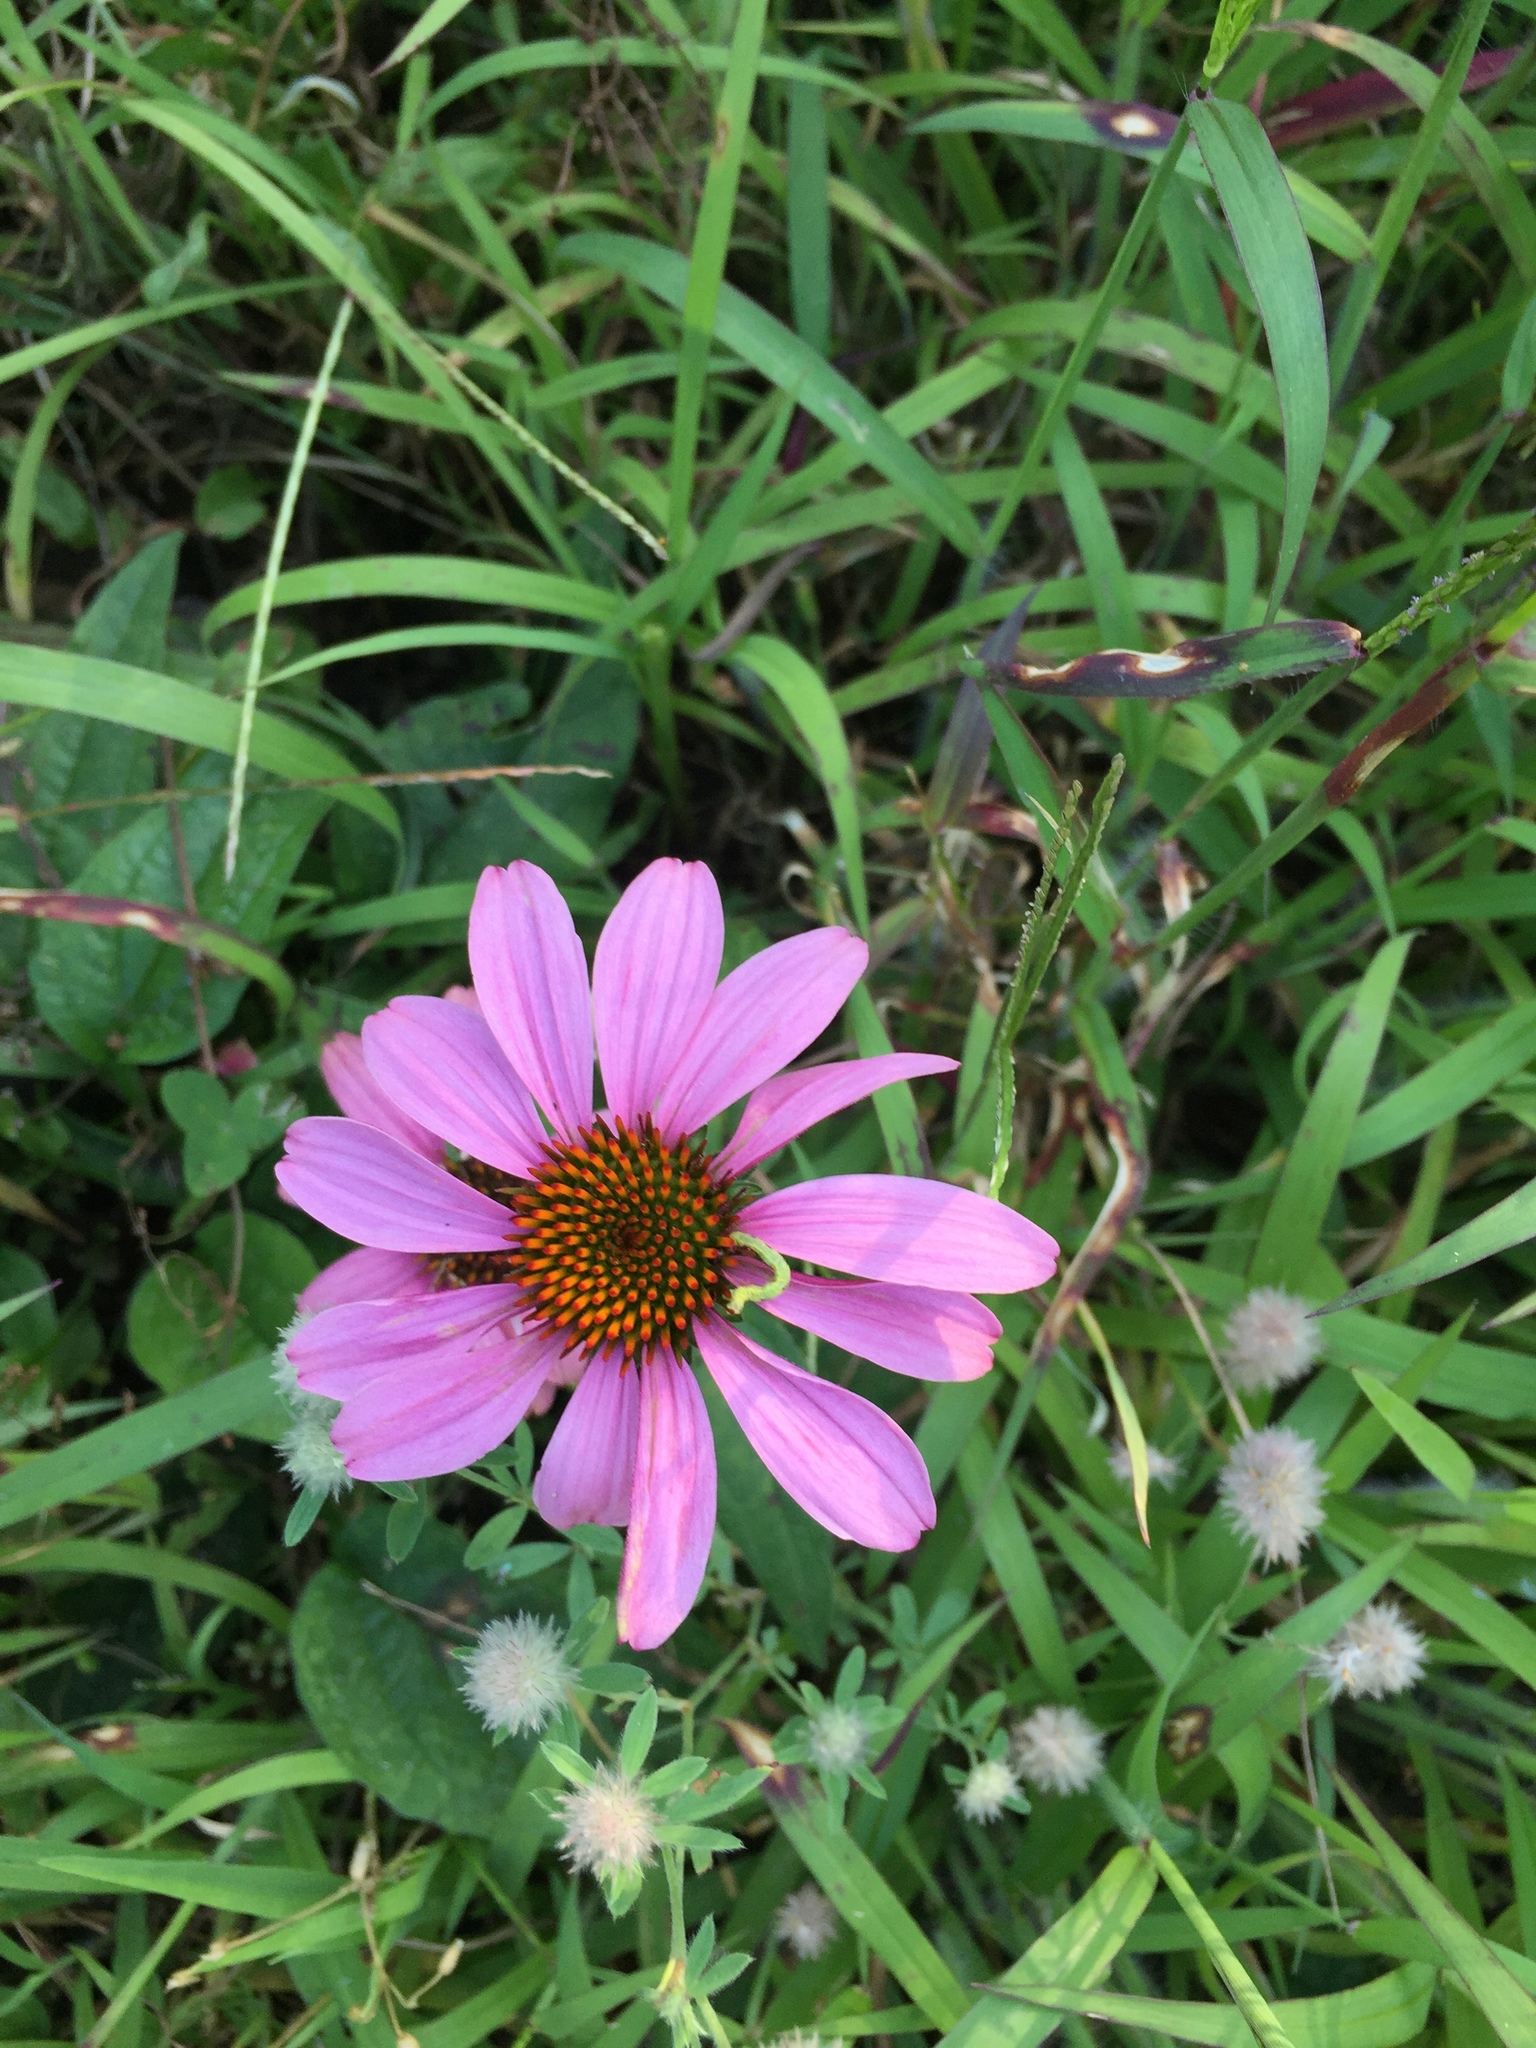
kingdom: Plantae
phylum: Tracheophyta
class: Magnoliopsida
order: Asterales
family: Asteraceae
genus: Echinacea
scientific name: Echinacea purpurea
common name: Broad-leaved purple coneflower
